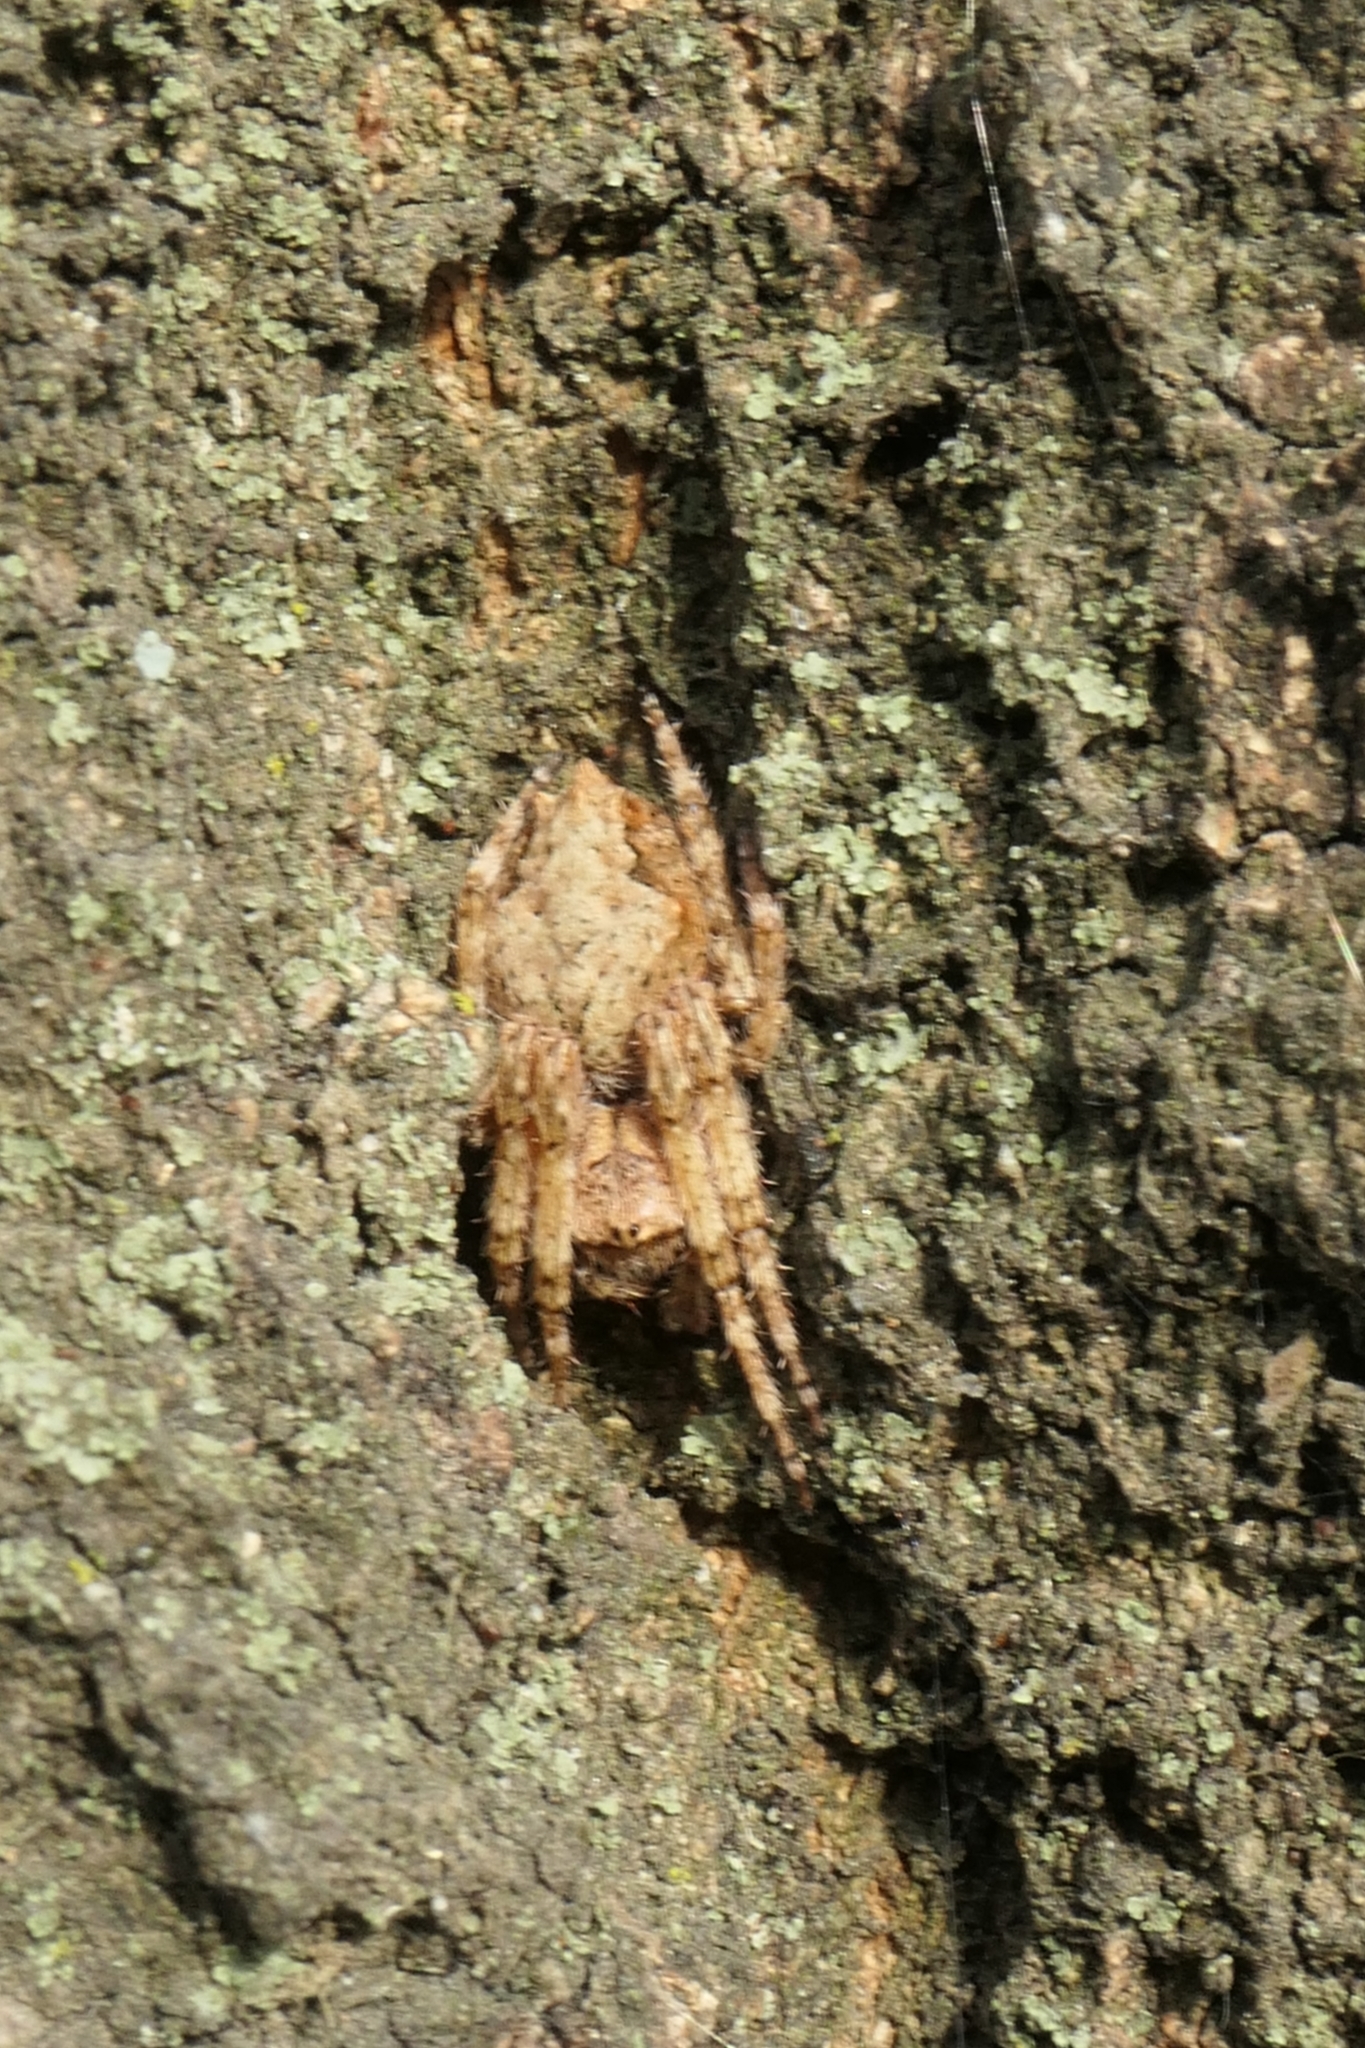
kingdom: Animalia
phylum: Arthropoda
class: Arachnida
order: Araneae
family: Araneidae
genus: Eriophora
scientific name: Eriophora pustulosa
